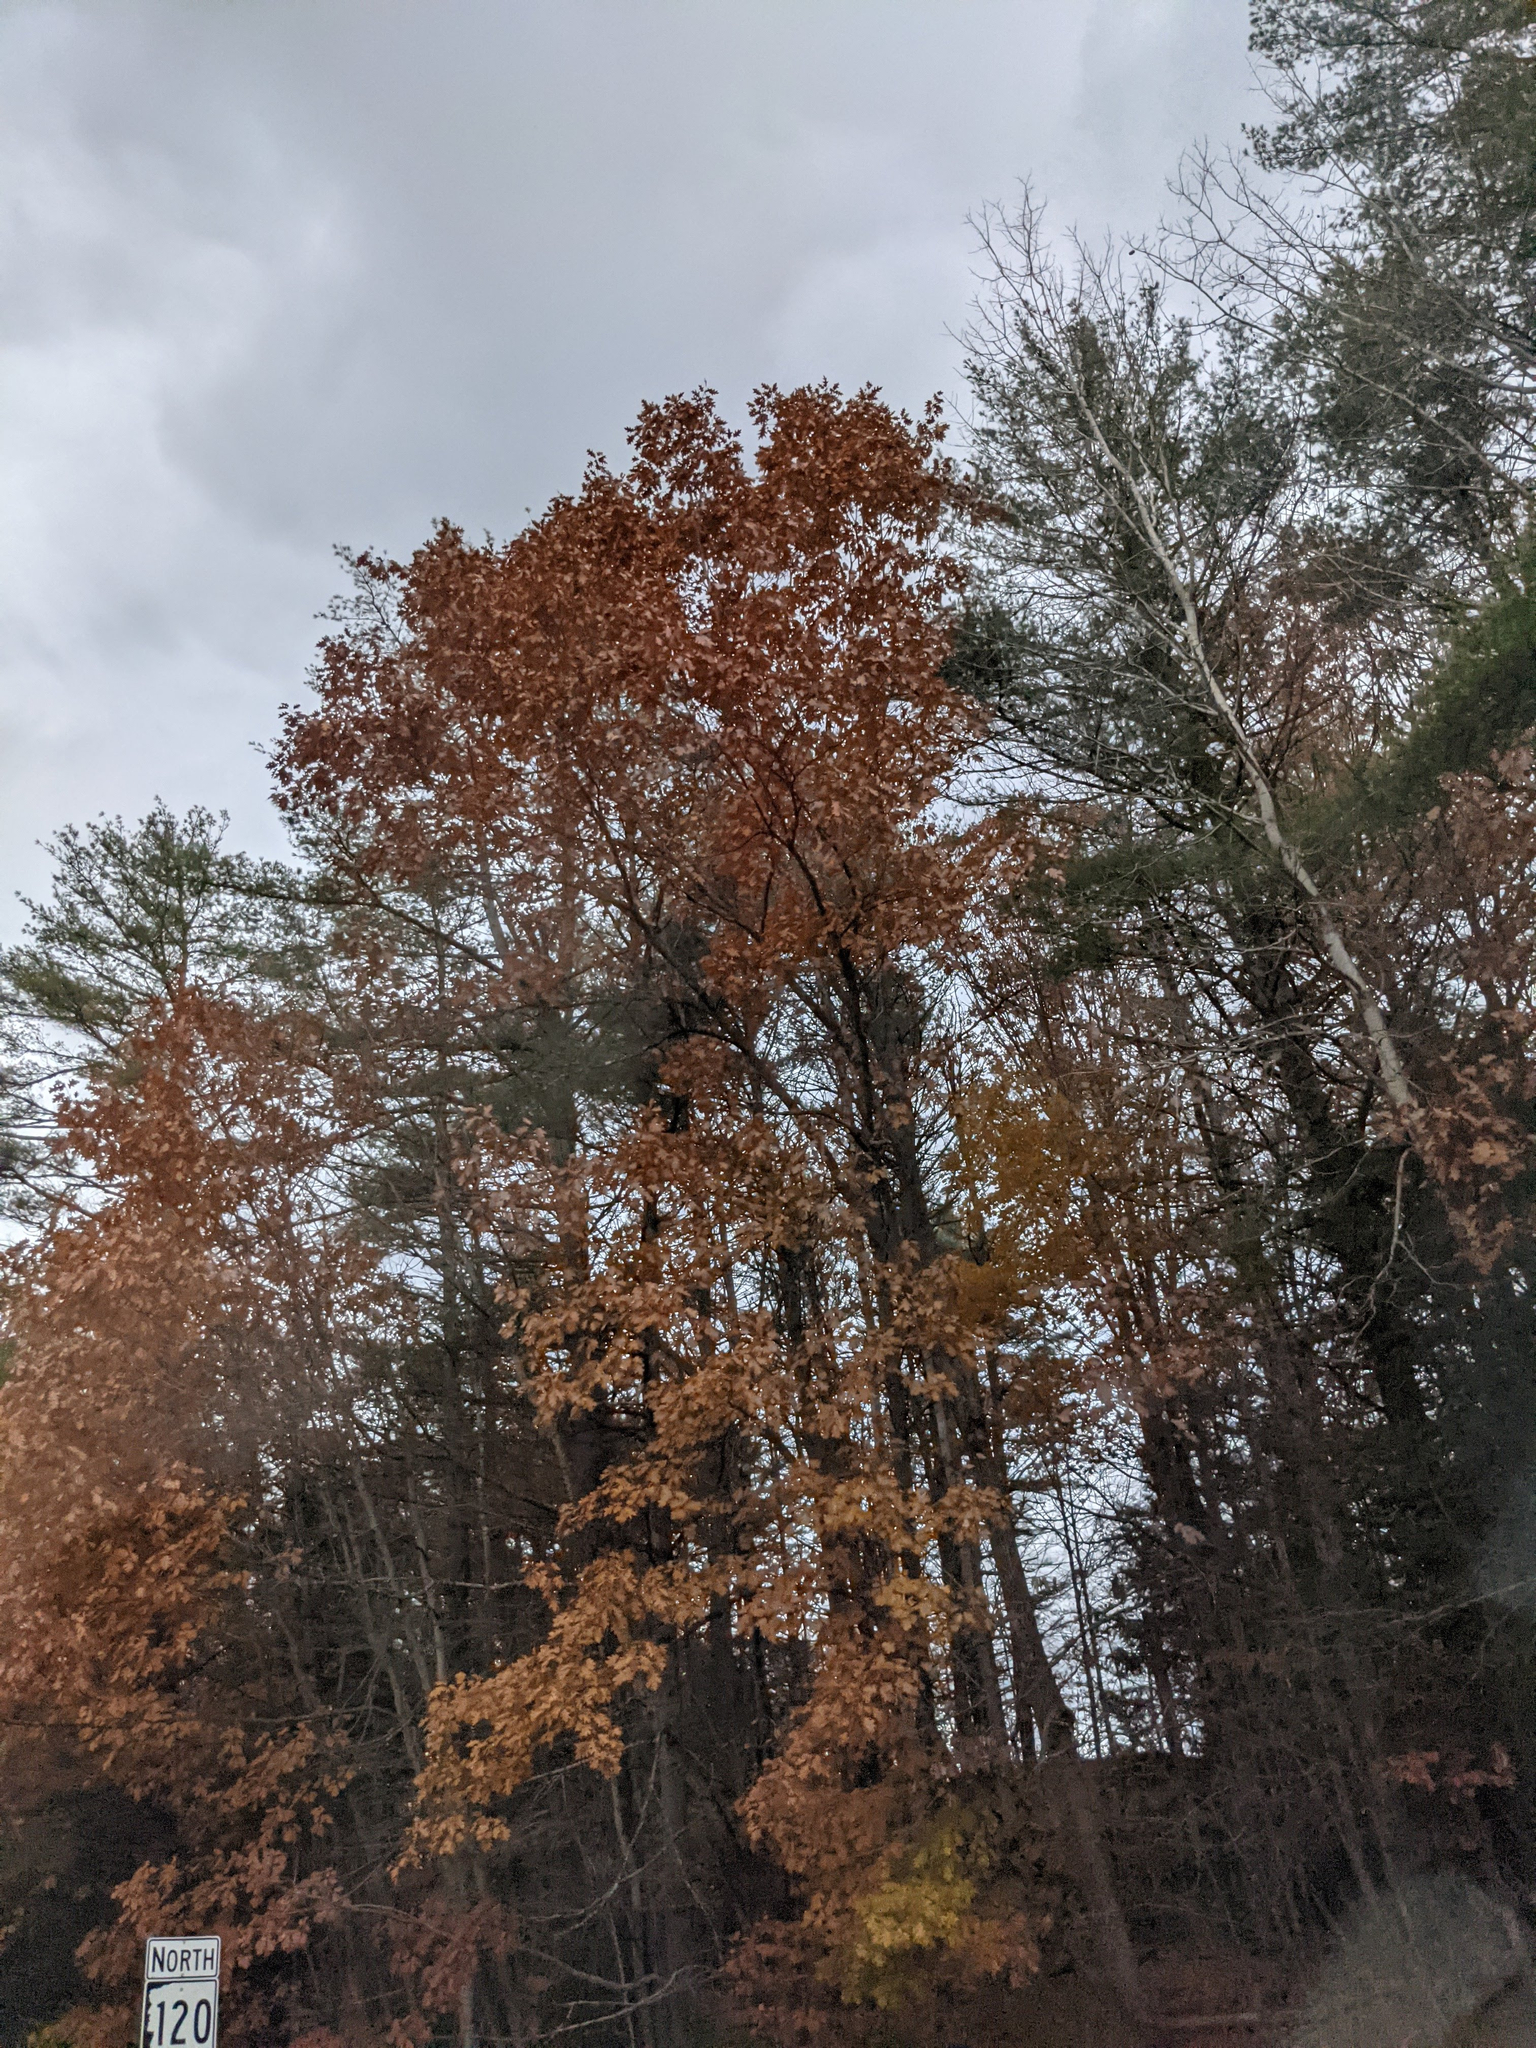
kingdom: Plantae
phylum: Tracheophyta
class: Magnoliopsida
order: Fagales
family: Fagaceae
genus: Quercus
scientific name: Quercus rubra
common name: Red oak
